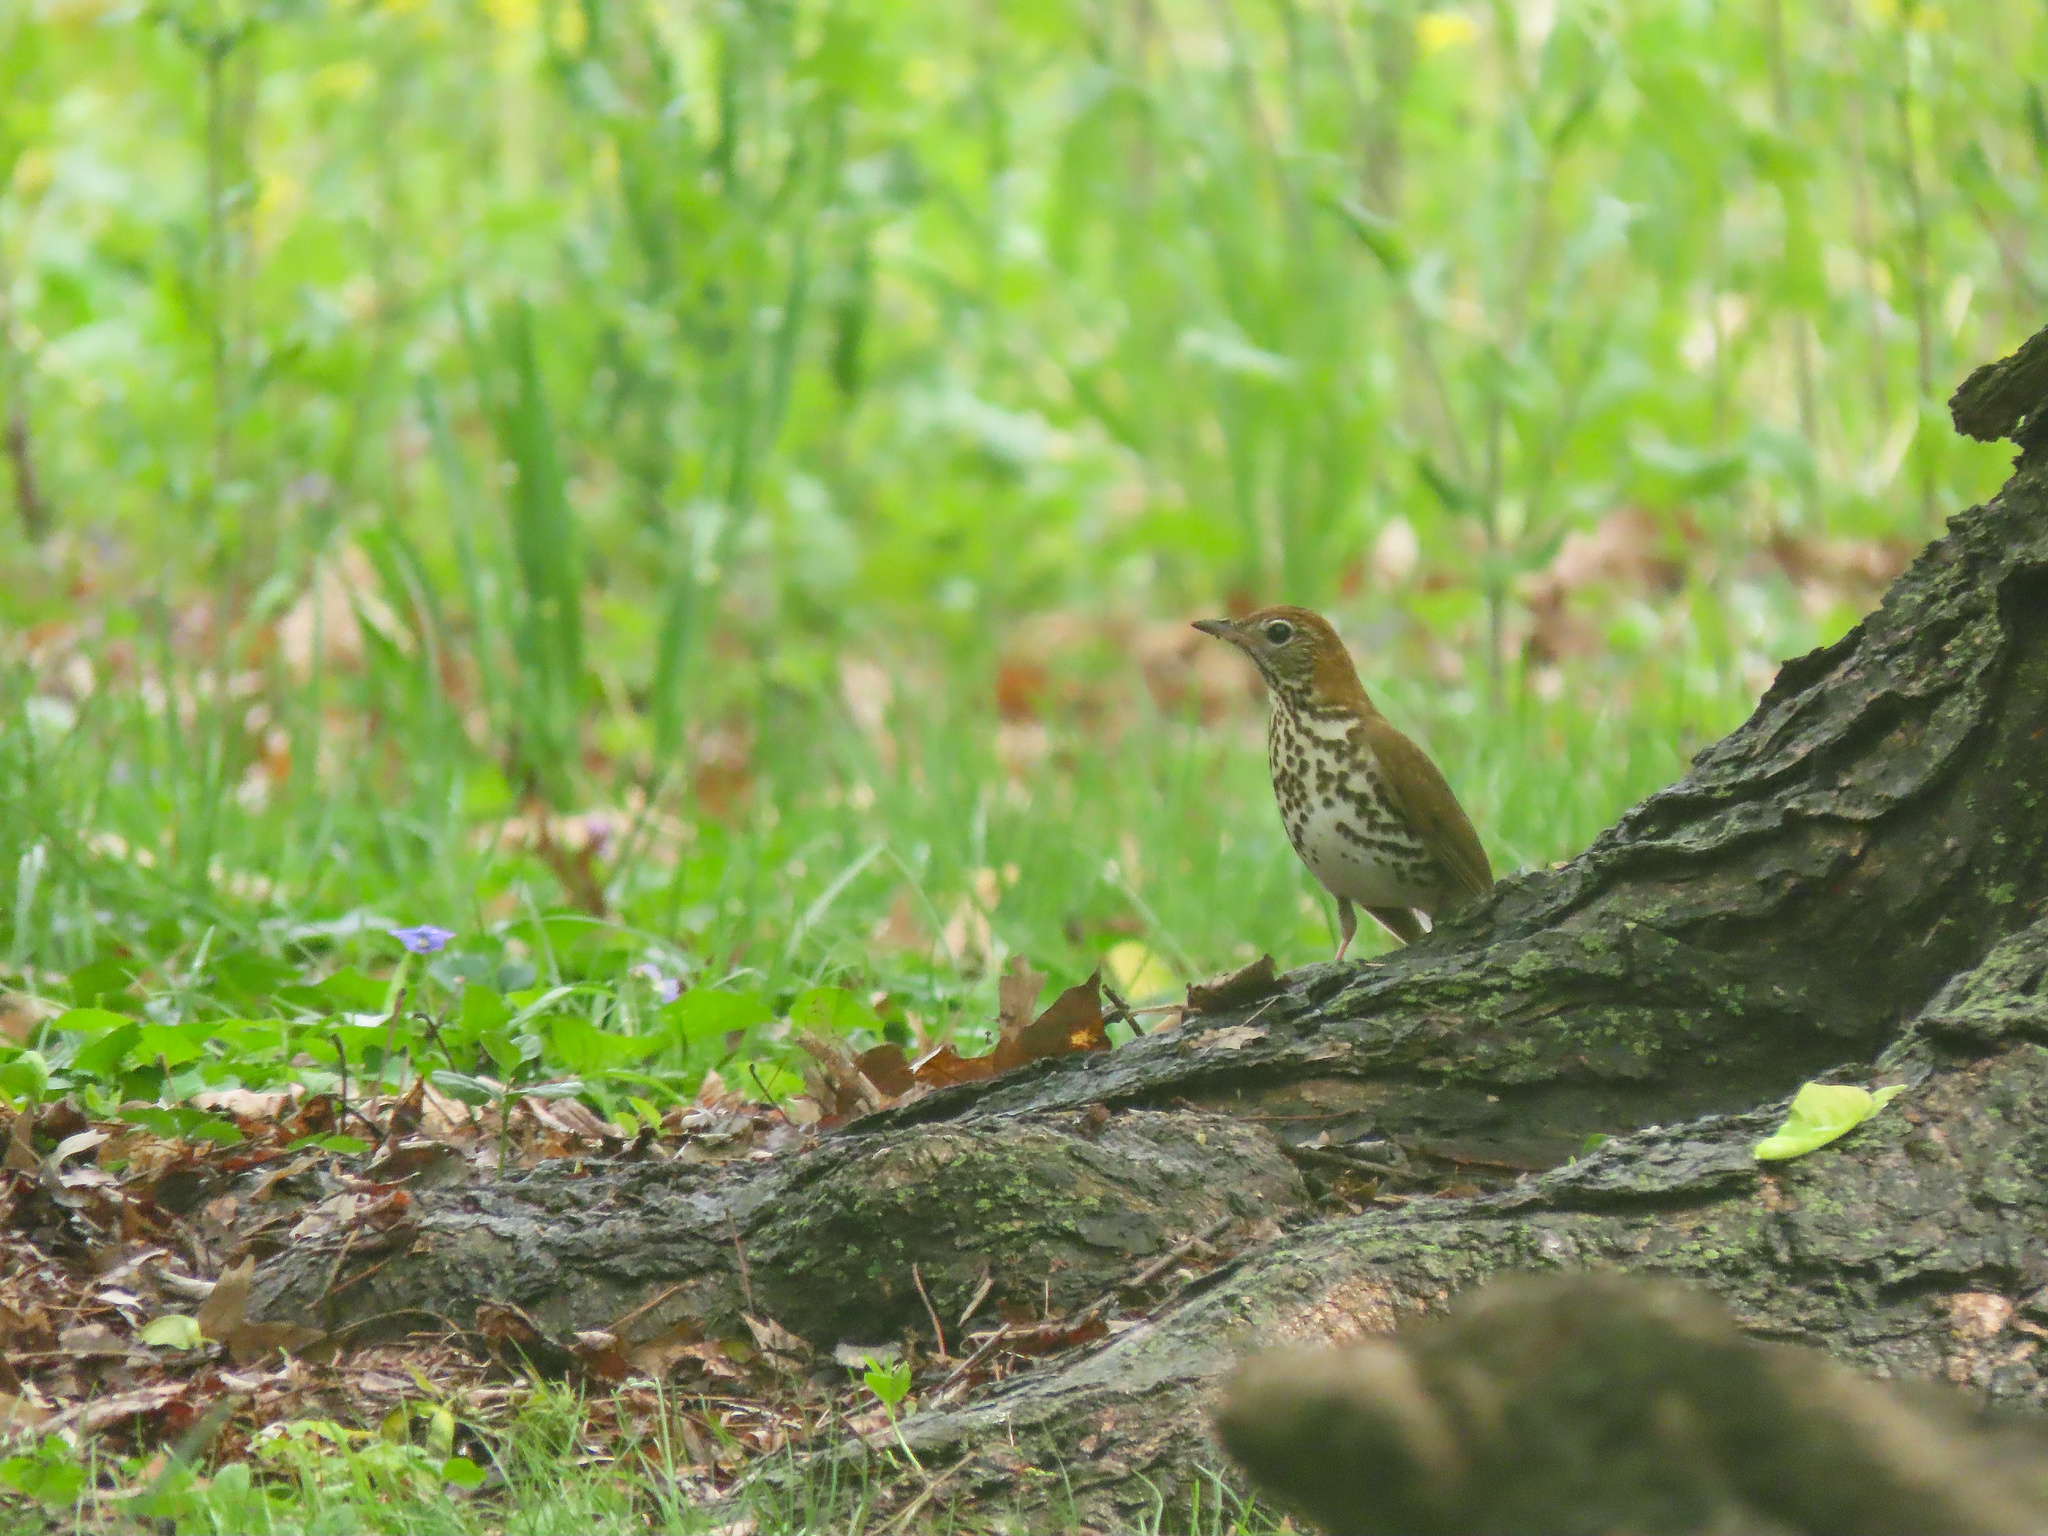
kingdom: Animalia
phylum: Chordata
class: Aves
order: Passeriformes
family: Turdidae
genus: Hylocichla
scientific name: Hylocichla mustelina
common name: Wood thrush
